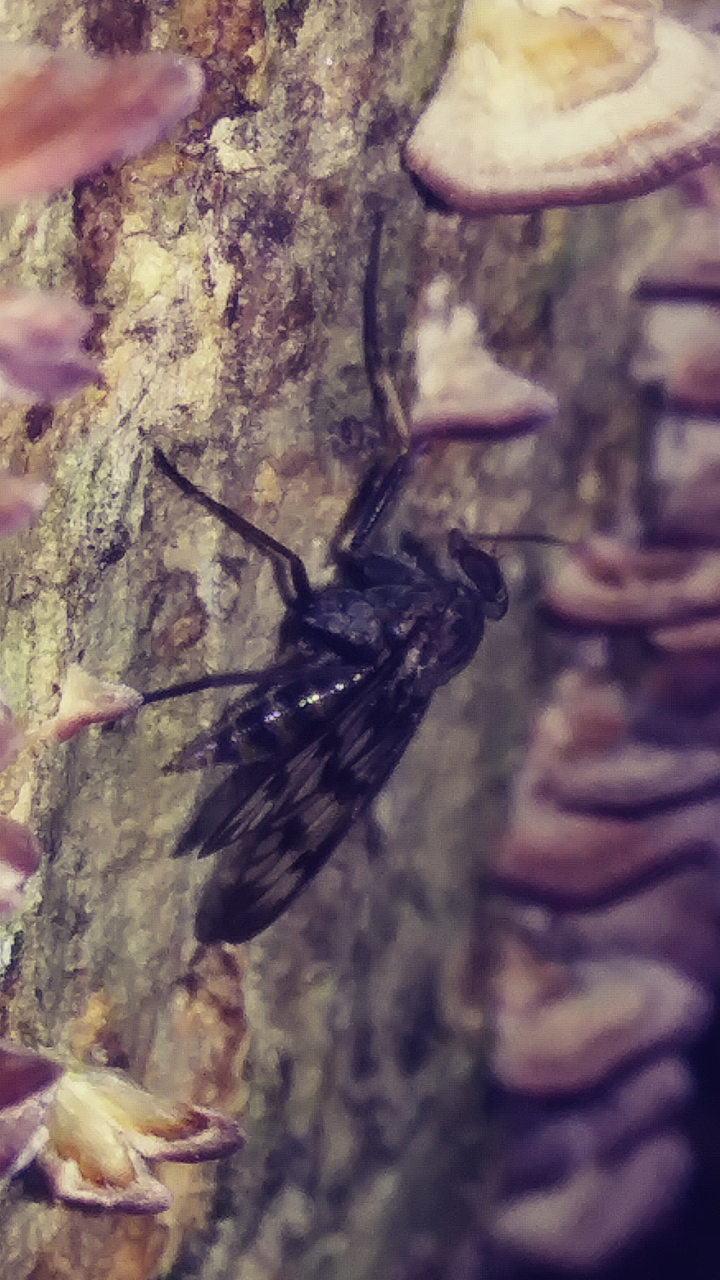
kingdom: Animalia
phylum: Arthropoda
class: Insecta
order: Diptera
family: Rhagionidae
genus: Rhagio
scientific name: Rhagio mystaceus
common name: Common snipe fly
